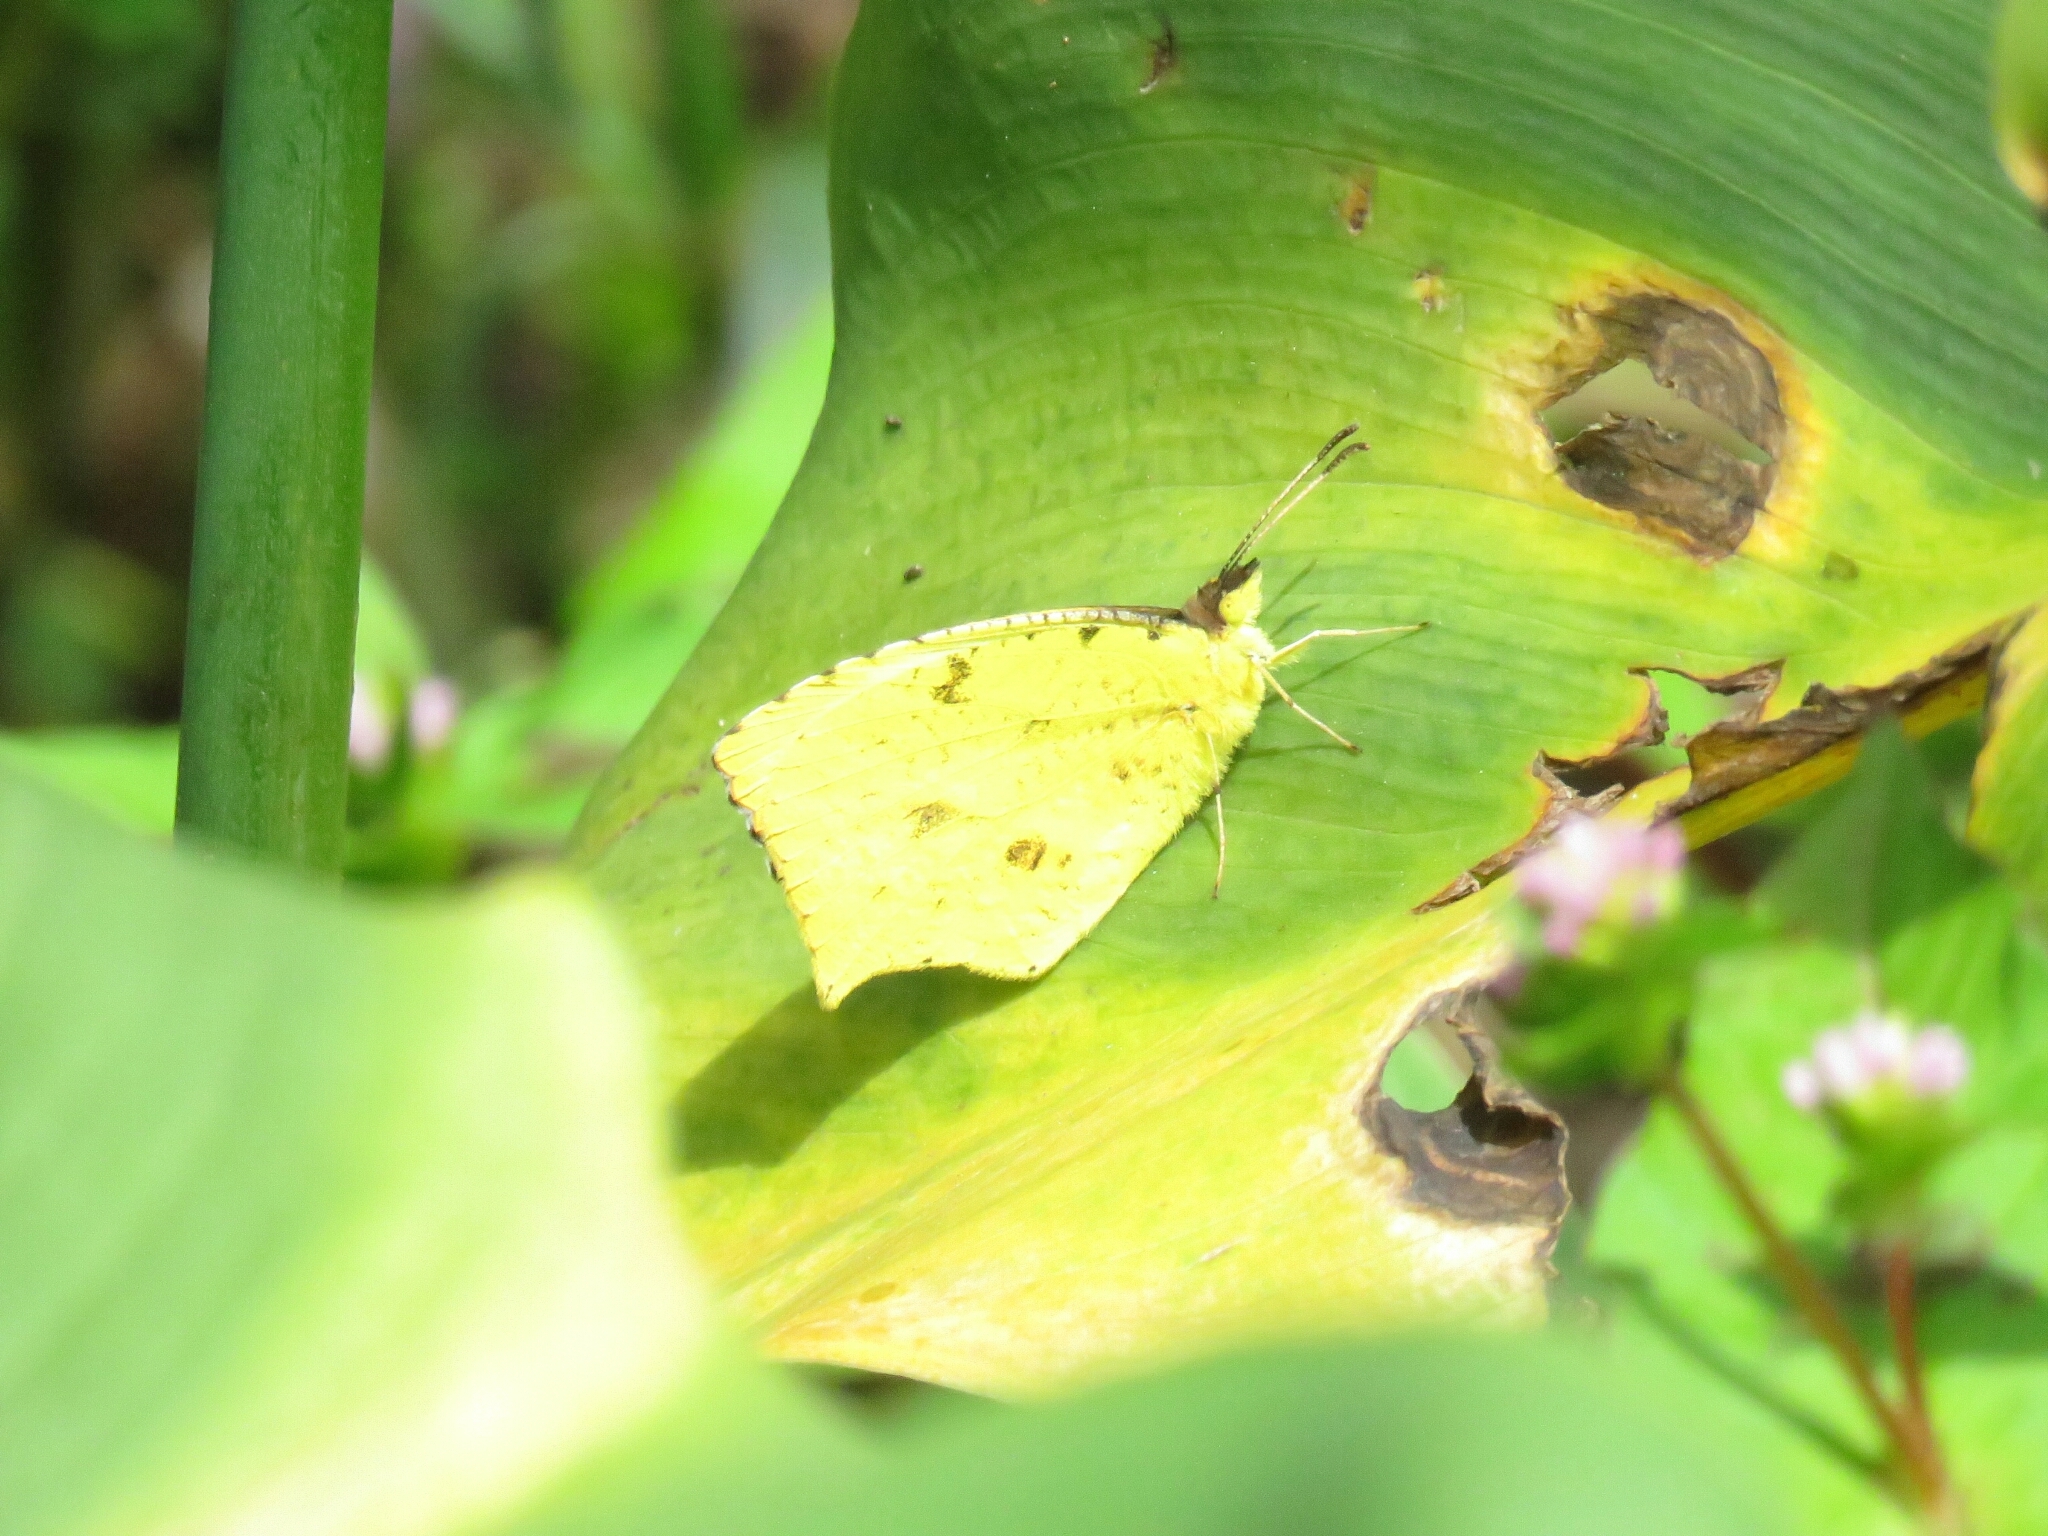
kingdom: Animalia
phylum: Arthropoda
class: Insecta
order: Lepidoptera
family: Pieridae
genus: Abaeis
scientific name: Abaeis salome
